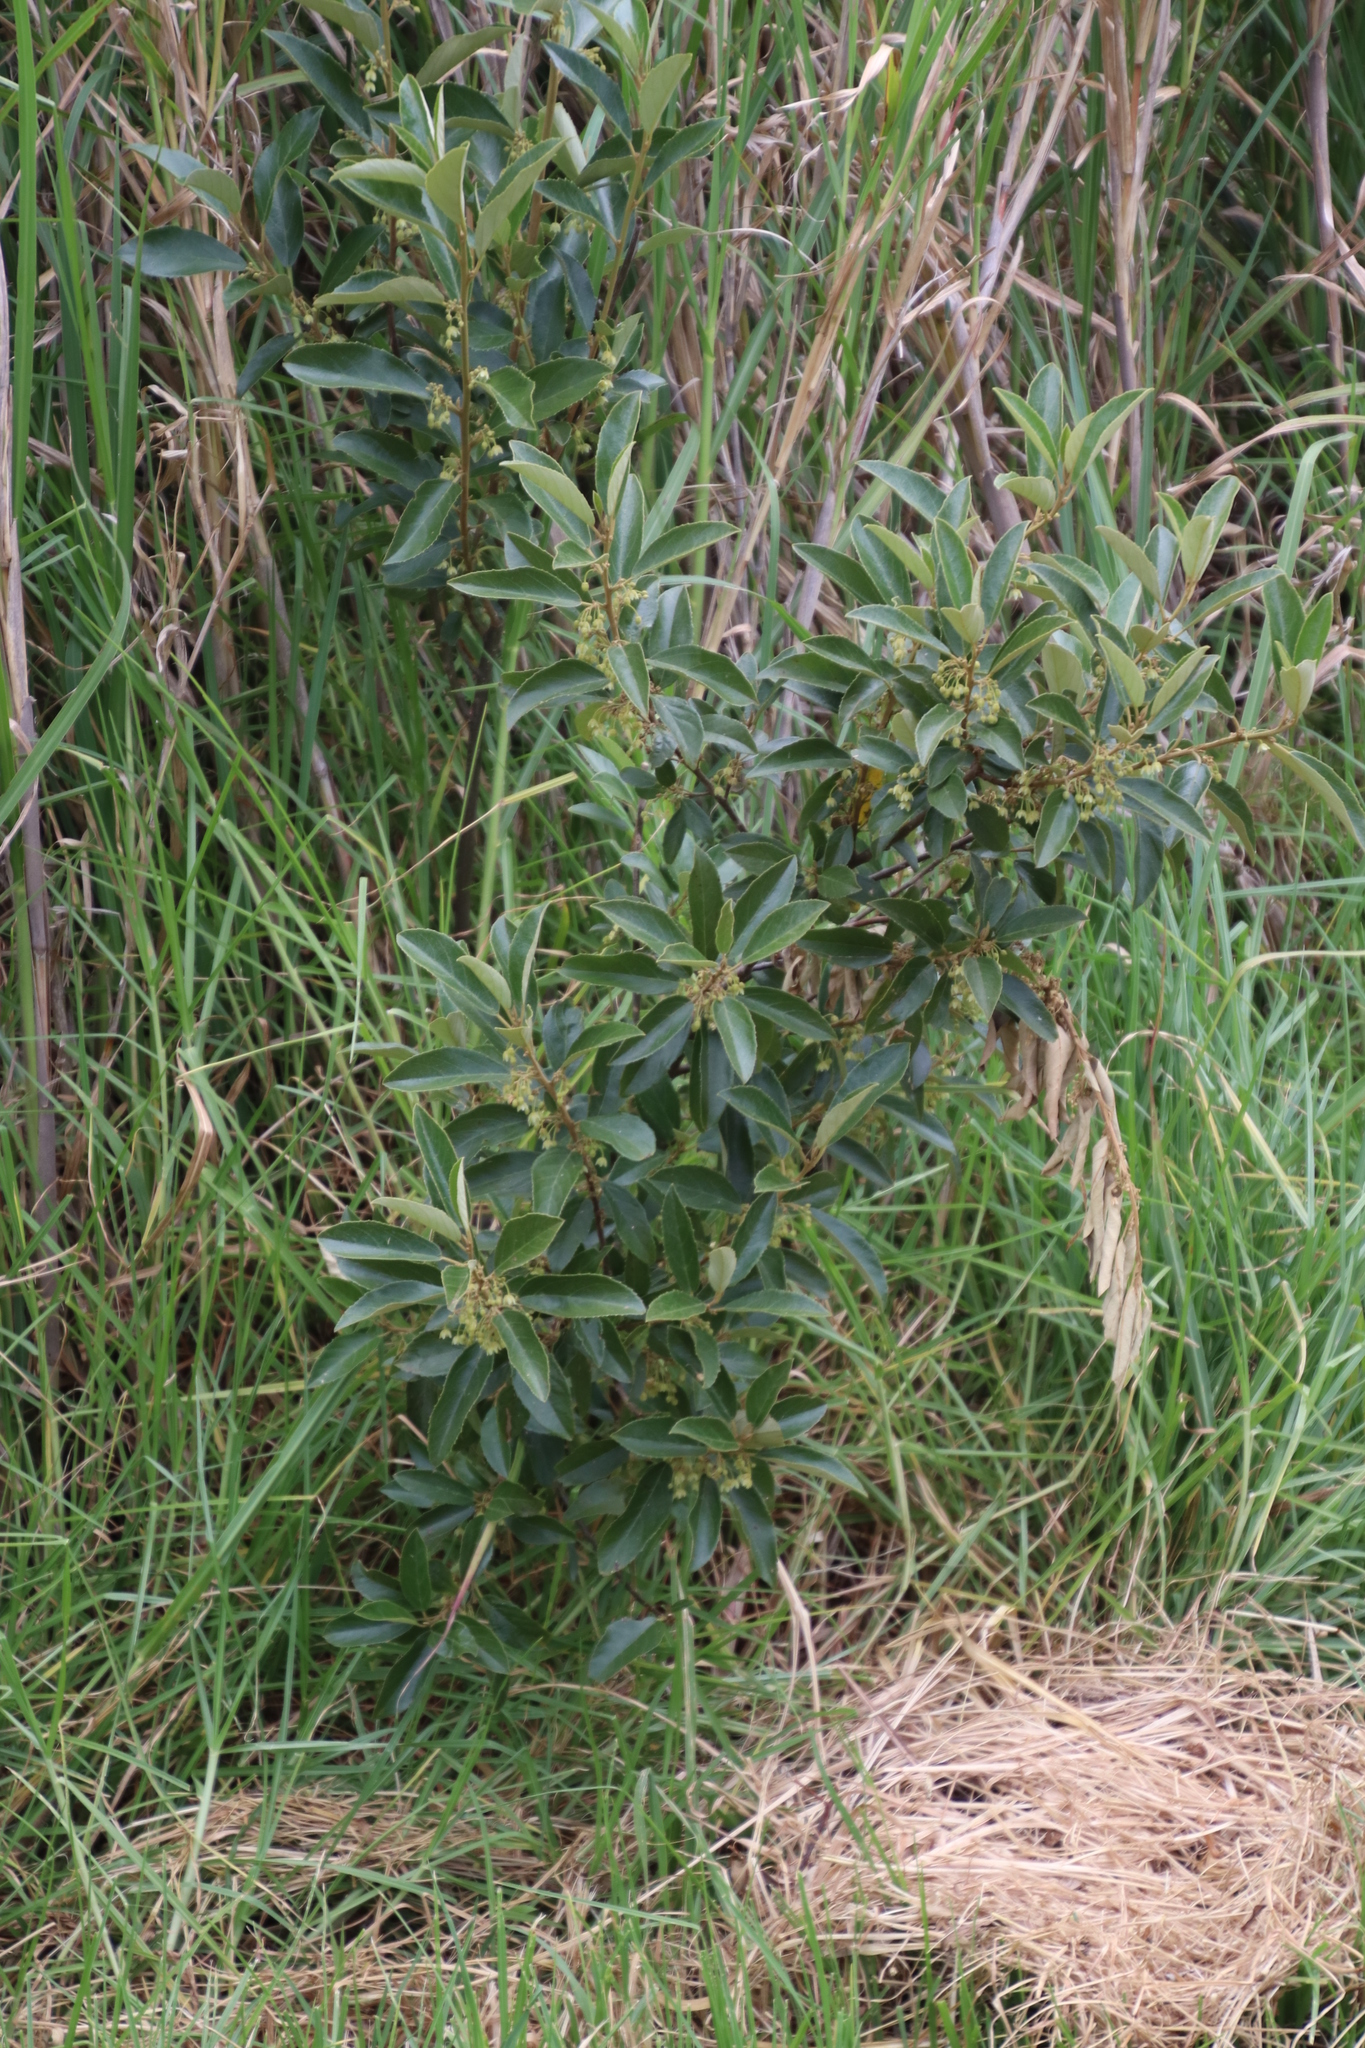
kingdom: Plantae
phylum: Tracheophyta
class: Magnoliopsida
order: Malpighiales
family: Achariaceae
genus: Kiggelaria
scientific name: Kiggelaria africana
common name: Wild peach
